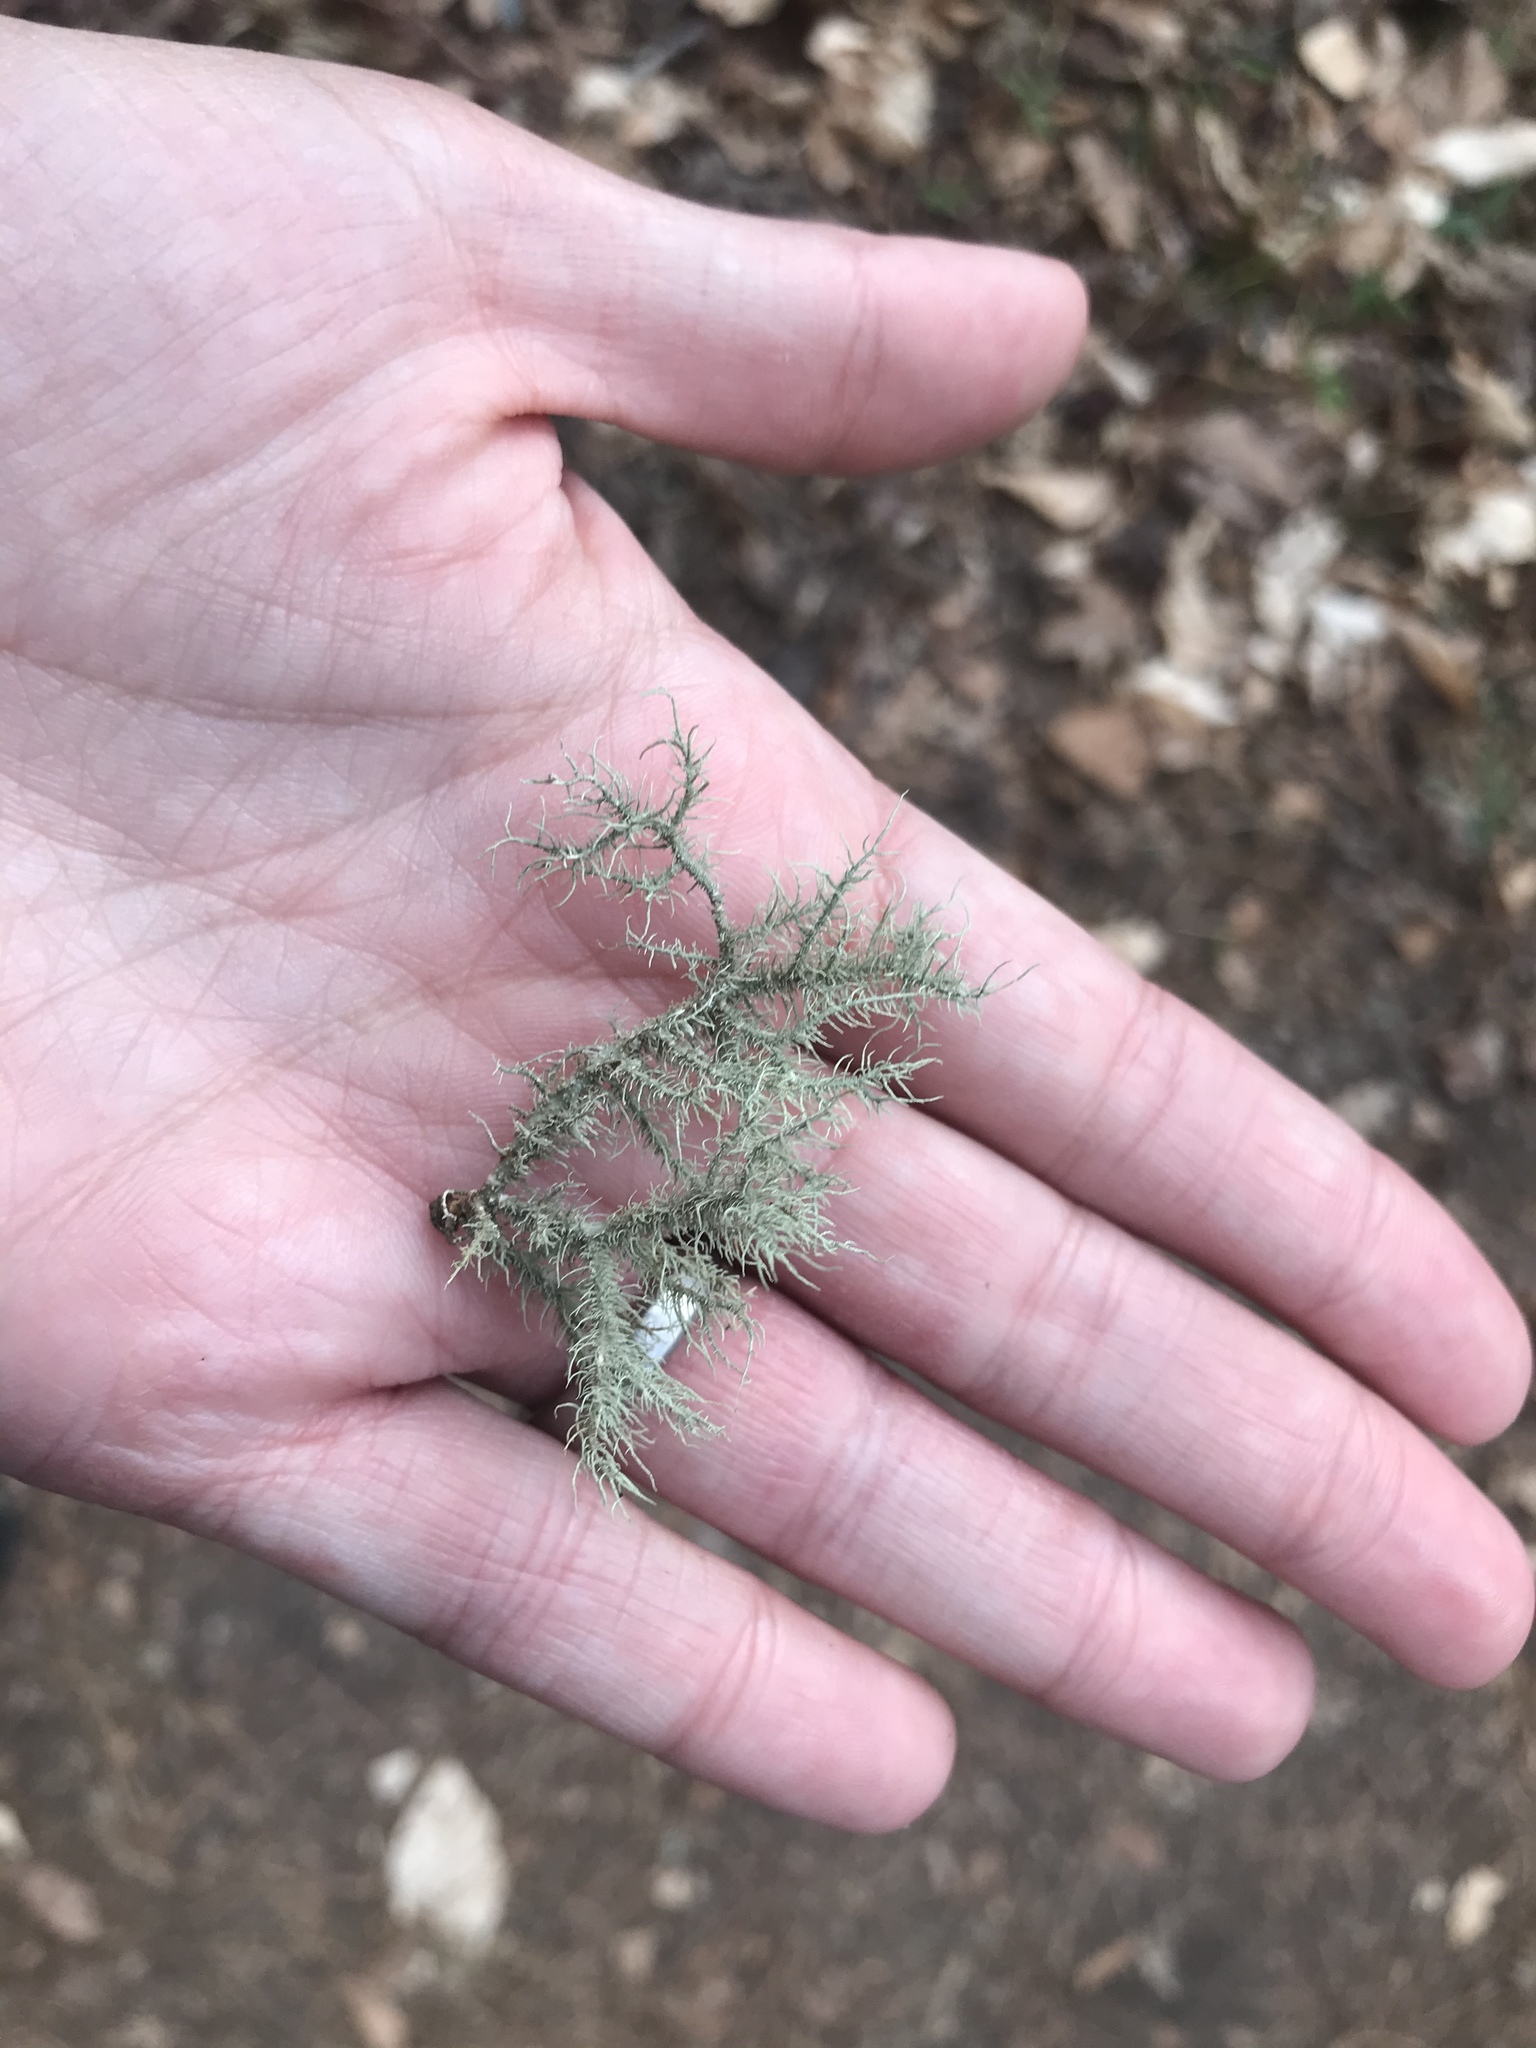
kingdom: Fungi
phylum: Ascomycota
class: Lecanoromycetes
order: Lecanorales
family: Parmeliaceae
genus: Usnea
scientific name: Usnea hirta
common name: Bristly beard lichen
